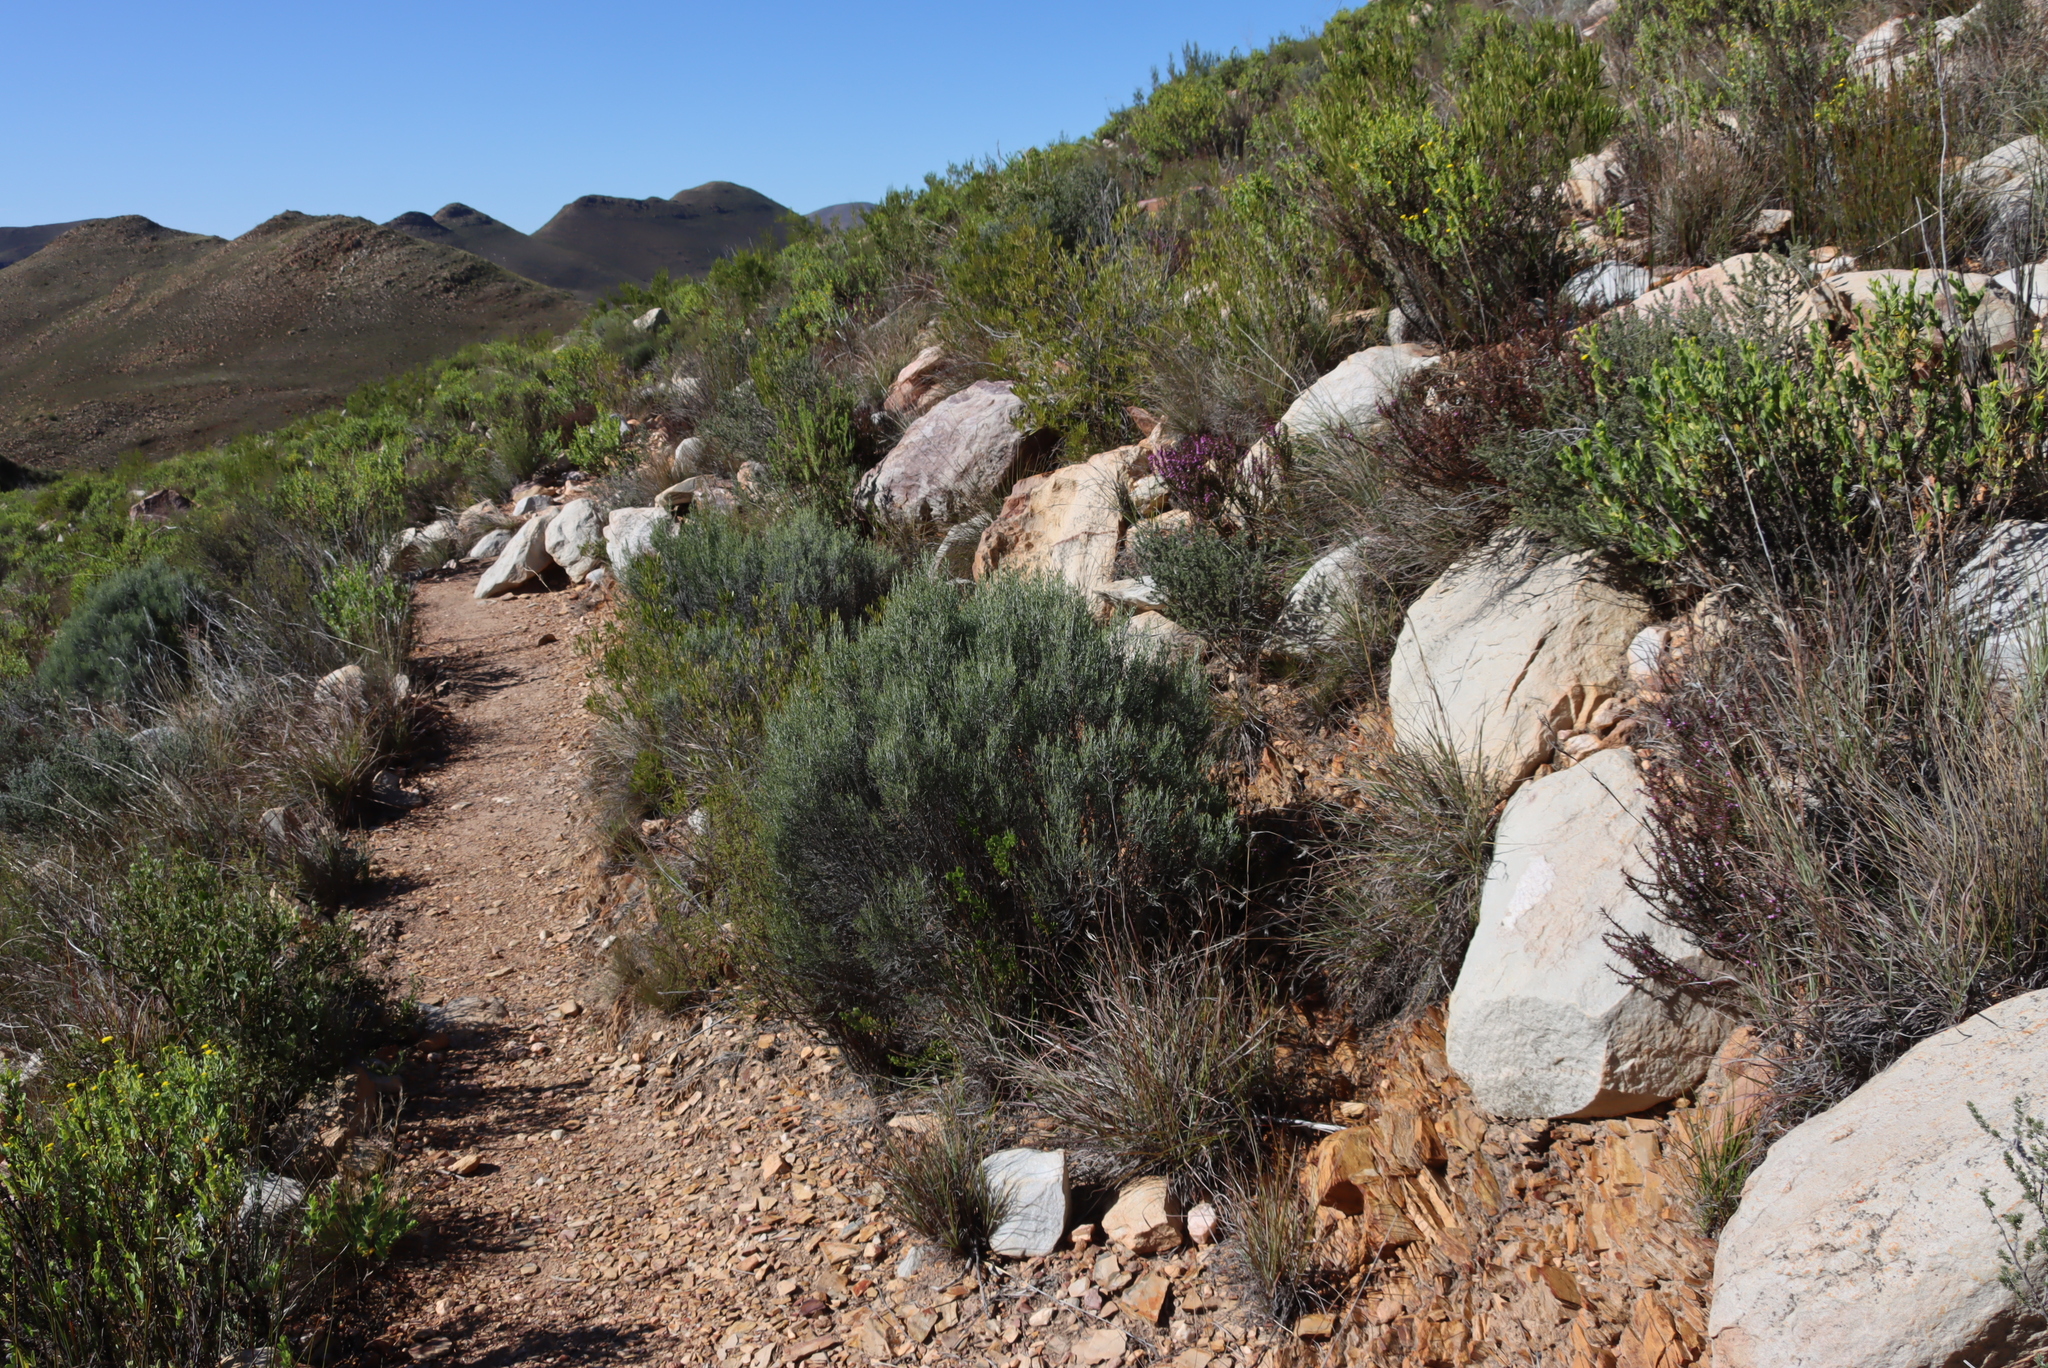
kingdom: Plantae
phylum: Tracheophyta
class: Magnoliopsida
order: Asterales
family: Asteraceae
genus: Dicerothamnus
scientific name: Dicerothamnus rhinocerotis
